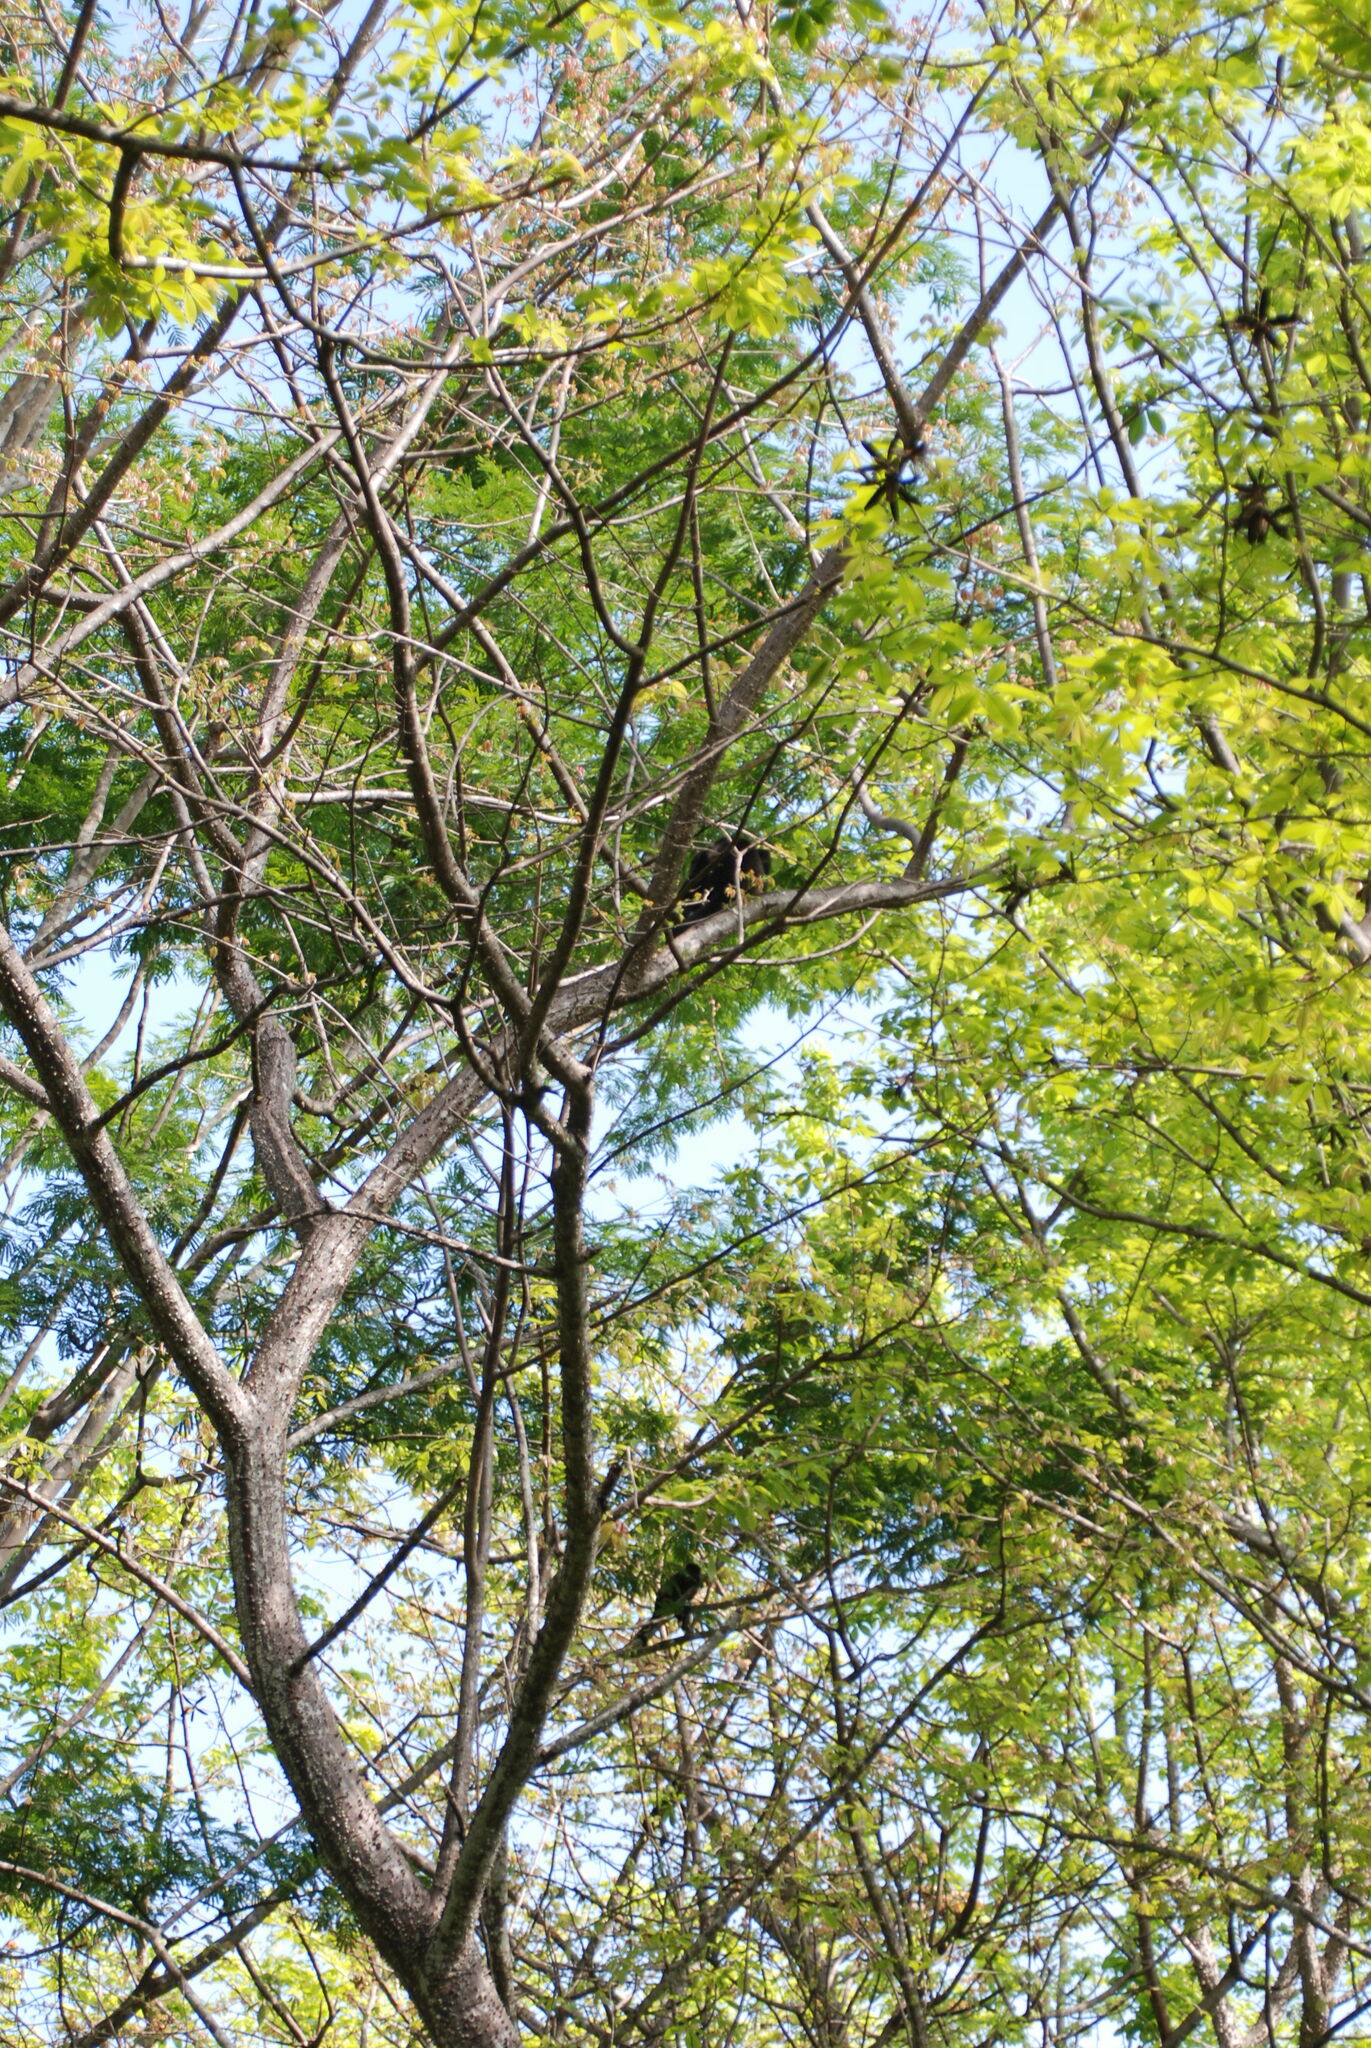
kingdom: Animalia
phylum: Chordata
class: Mammalia
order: Primates
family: Atelidae
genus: Alouatta
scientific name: Alouatta palliata
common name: Mantled howler
